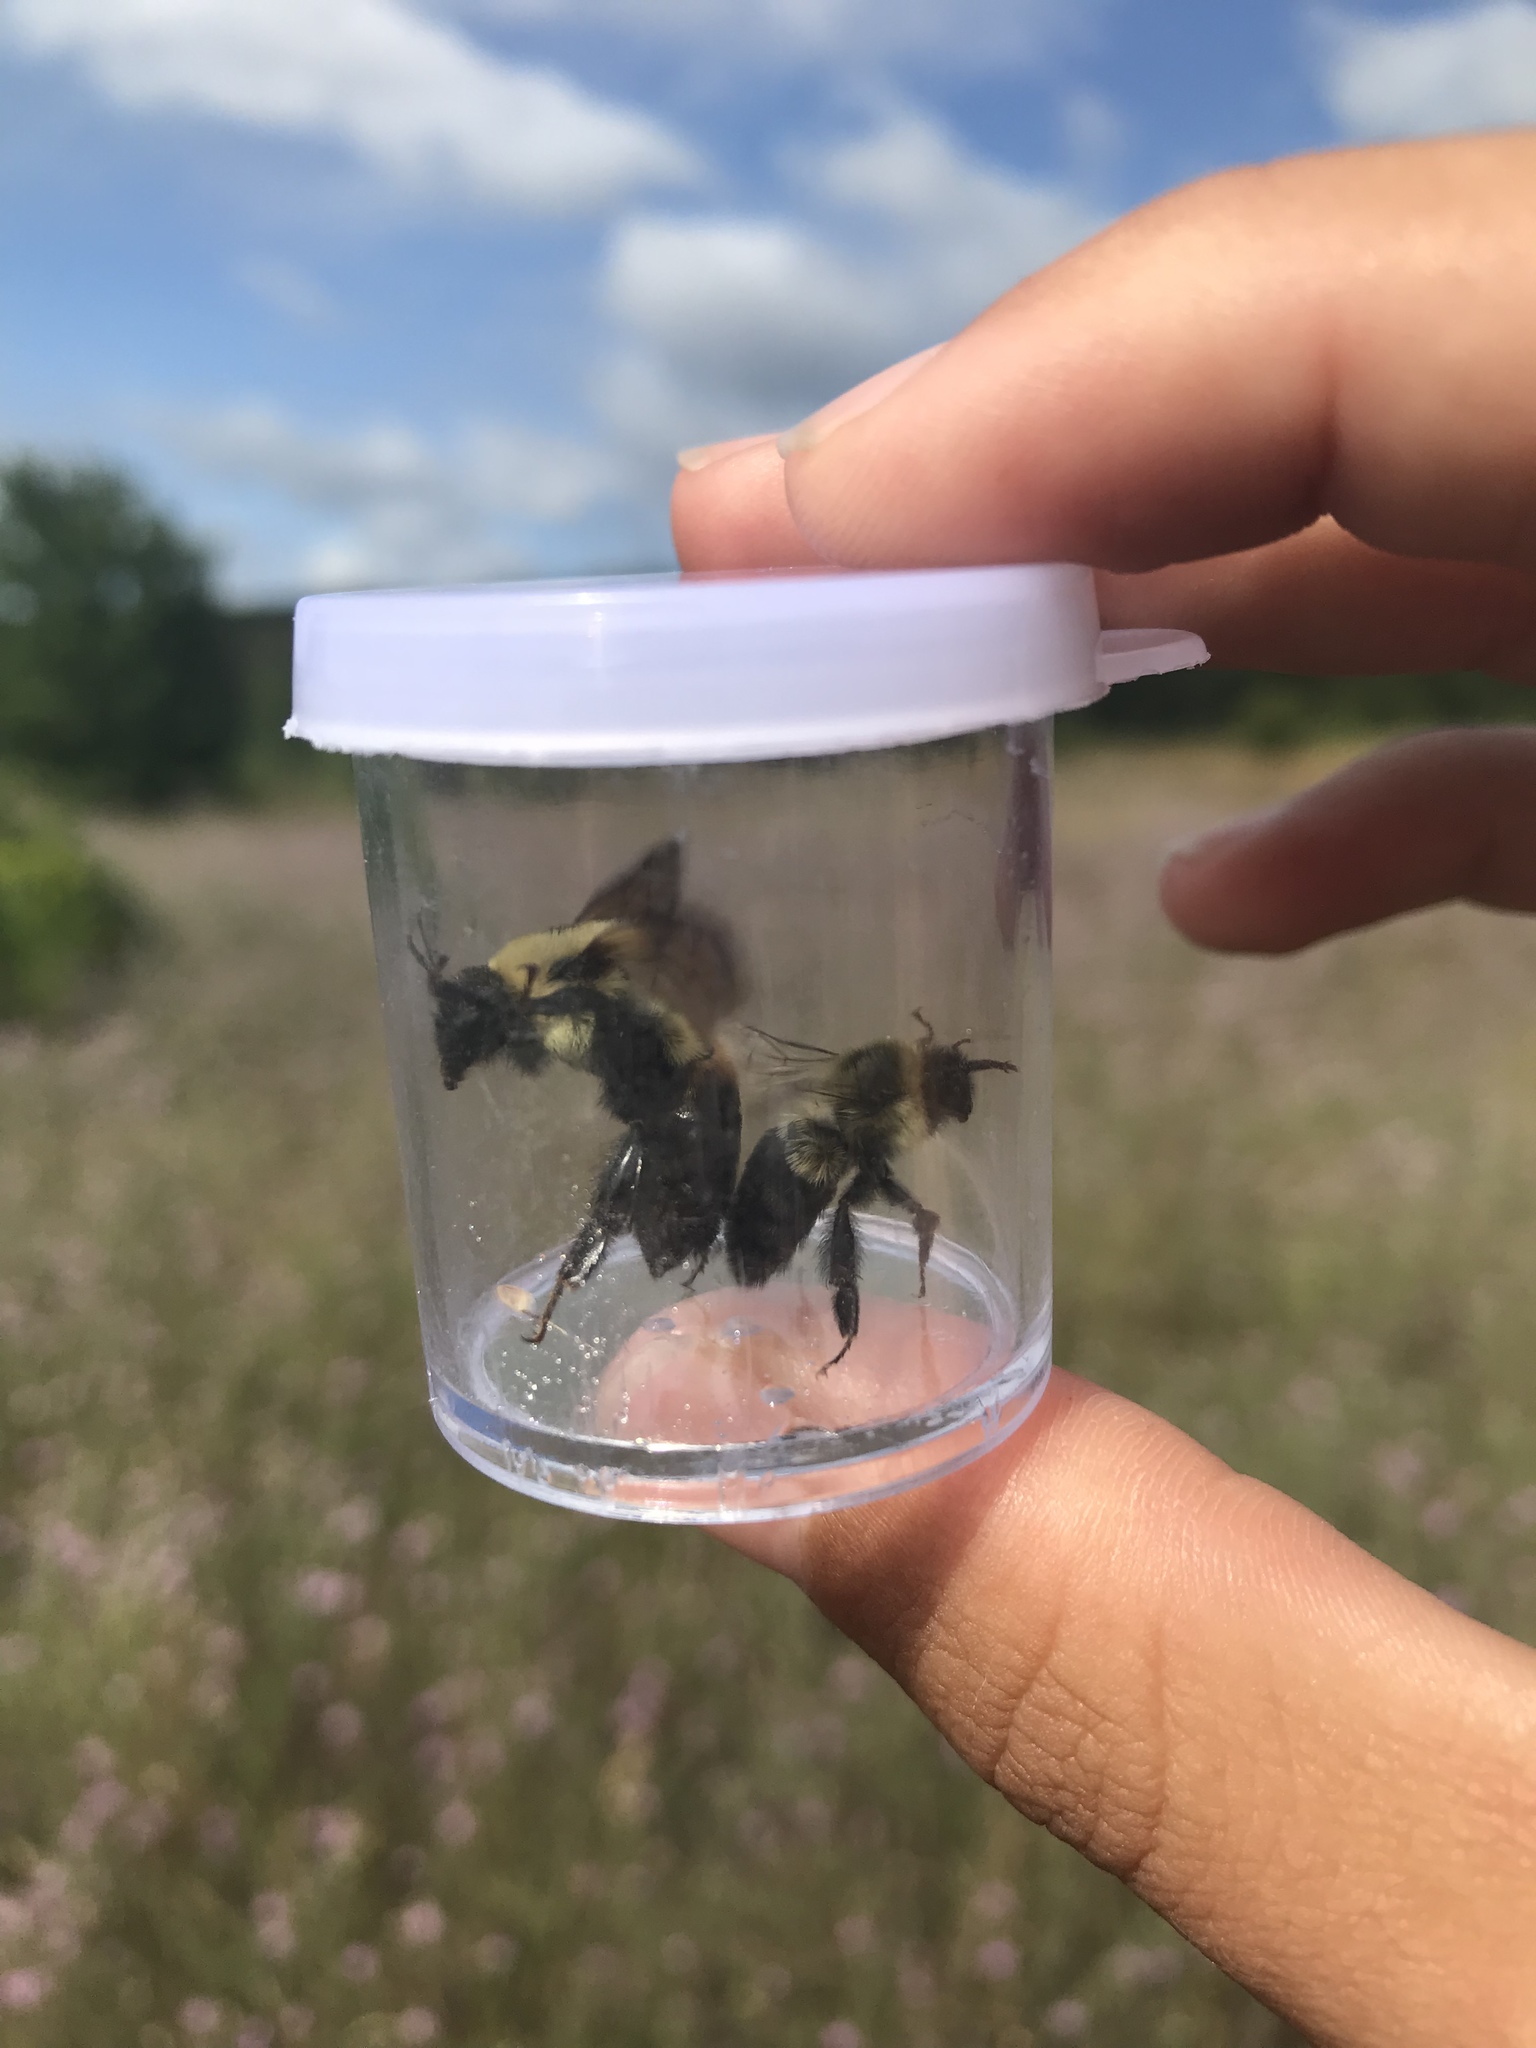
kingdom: Animalia
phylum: Arthropoda
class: Insecta
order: Hymenoptera
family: Apidae
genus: Bombus
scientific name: Bombus griseocollis
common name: Brown-belted bumble bee
